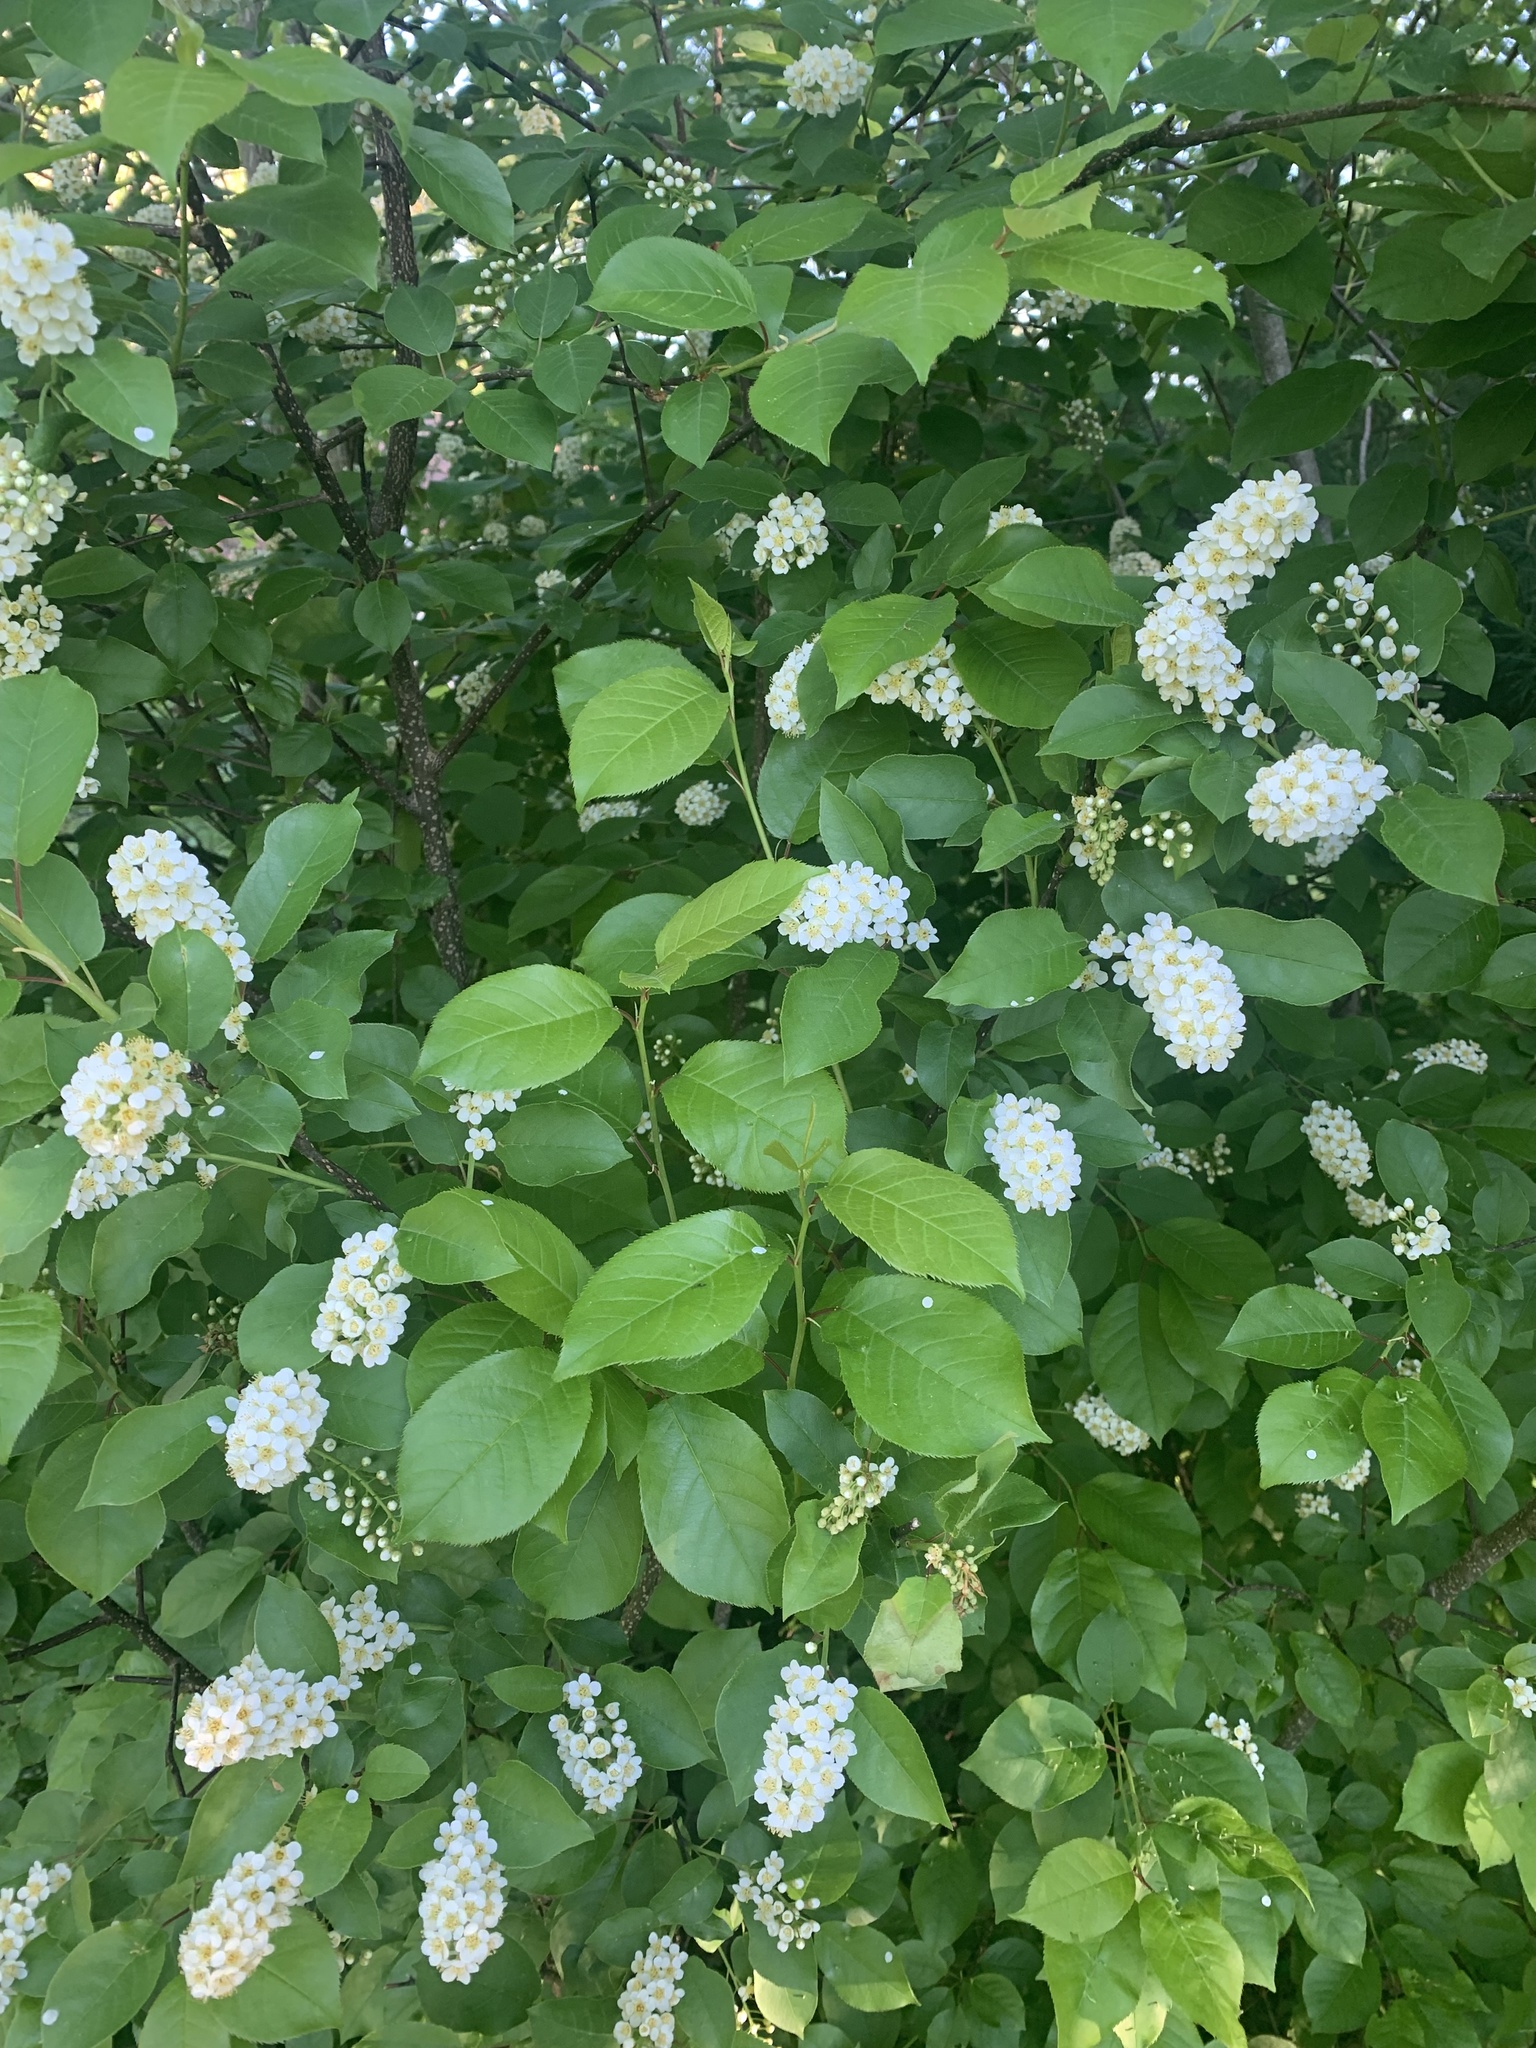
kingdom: Plantae
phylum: Tracheophyta
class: Magnoliopsida
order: Rosales
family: Rosaceae
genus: Prunus
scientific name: Prunus virginiana
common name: Chokecherry
